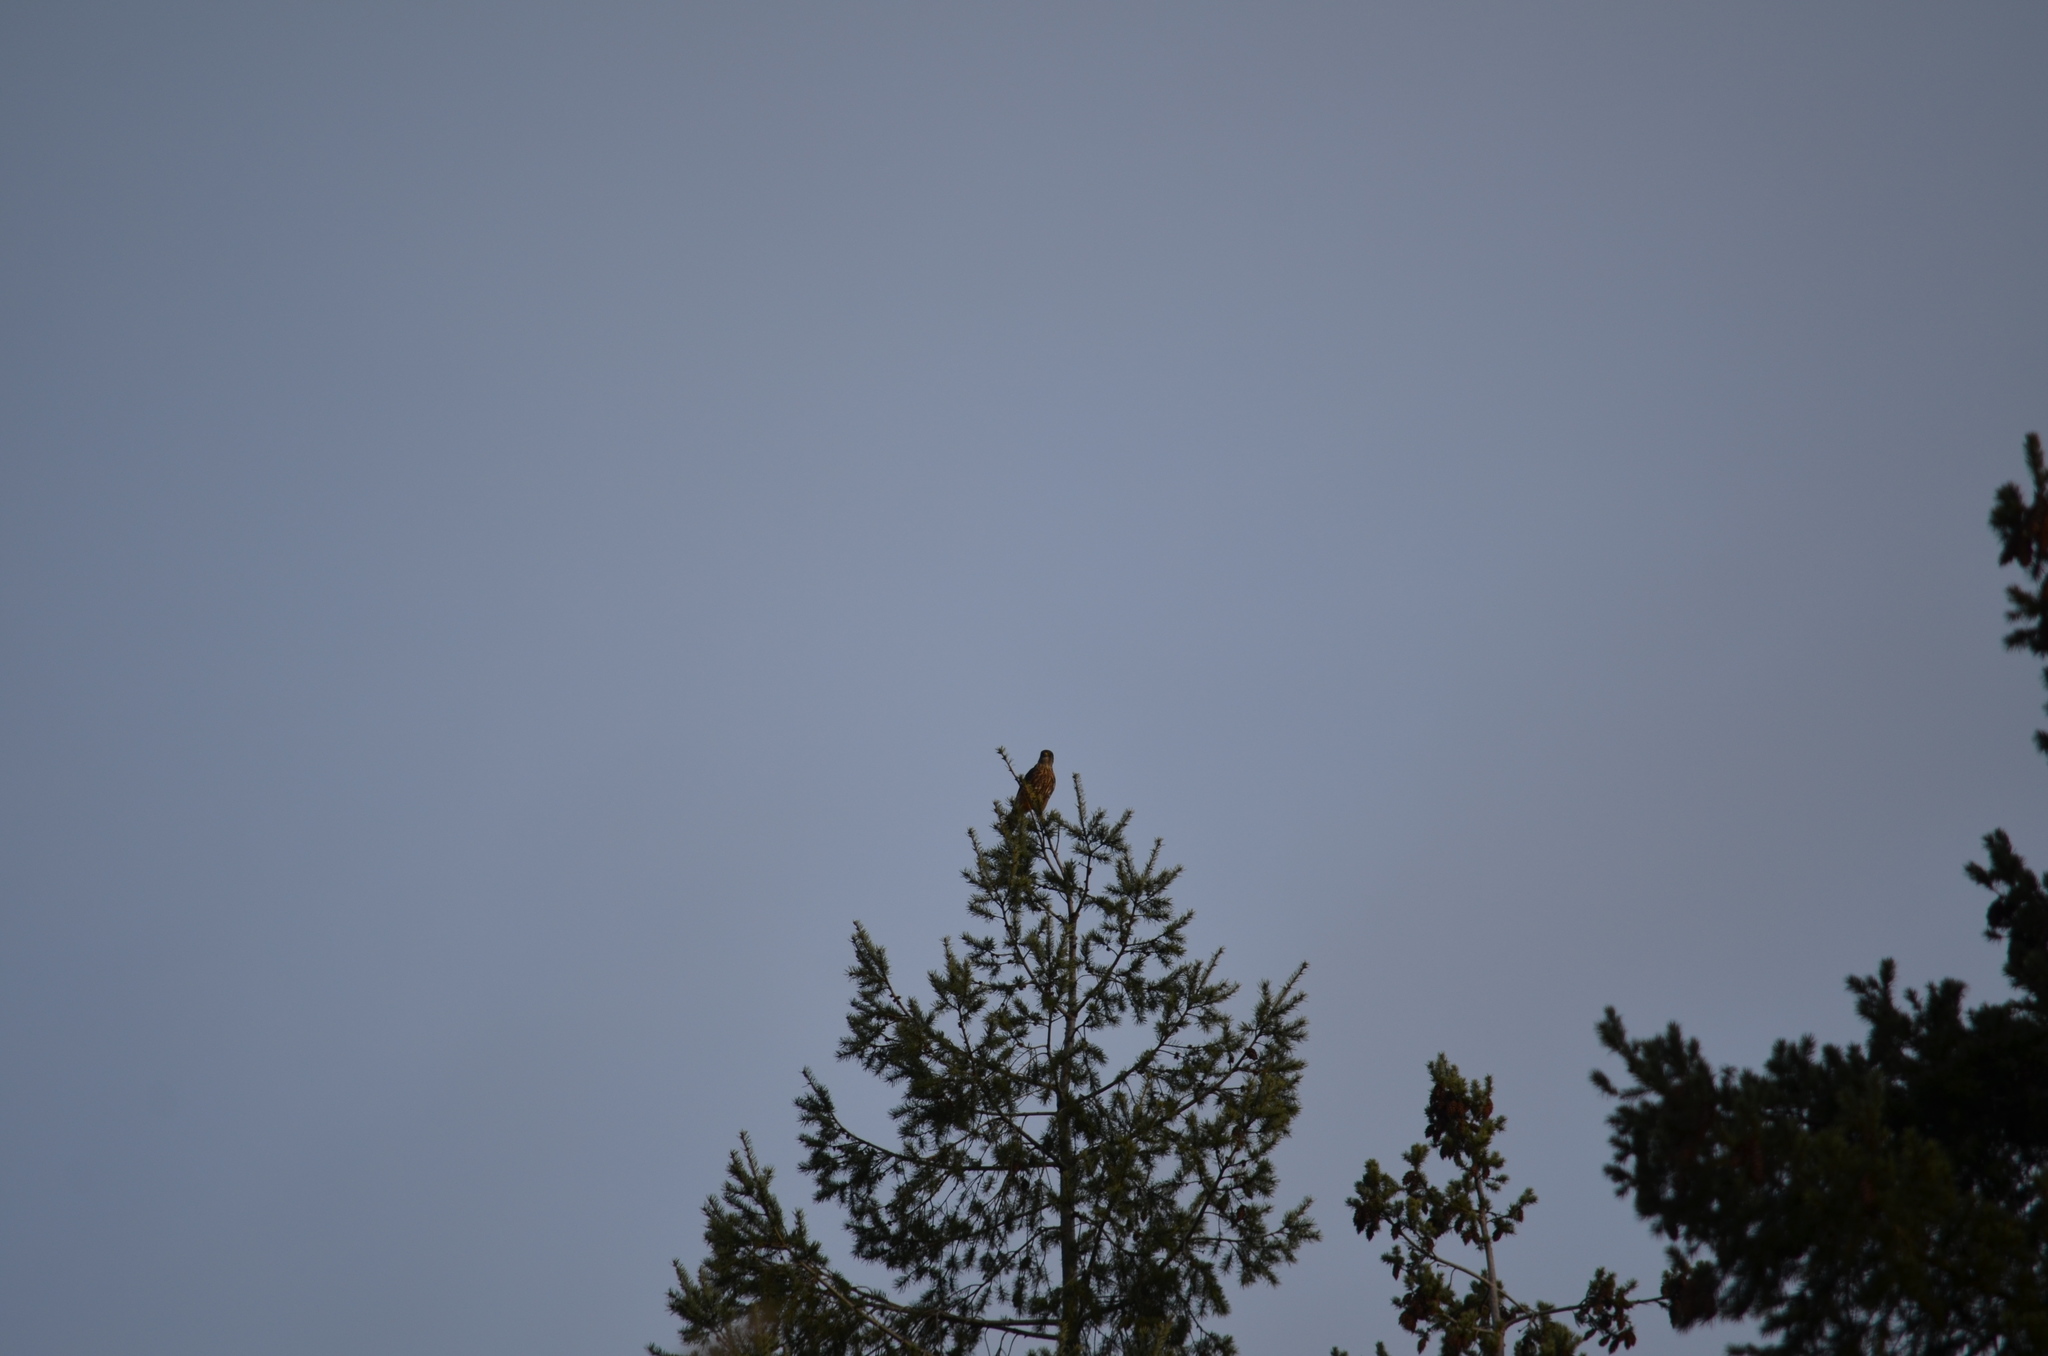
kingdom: Animalia
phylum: Chordata
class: Aves
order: Falconiformes
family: Falconidae
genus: Falco
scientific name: Falco columbarius
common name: Merlin
